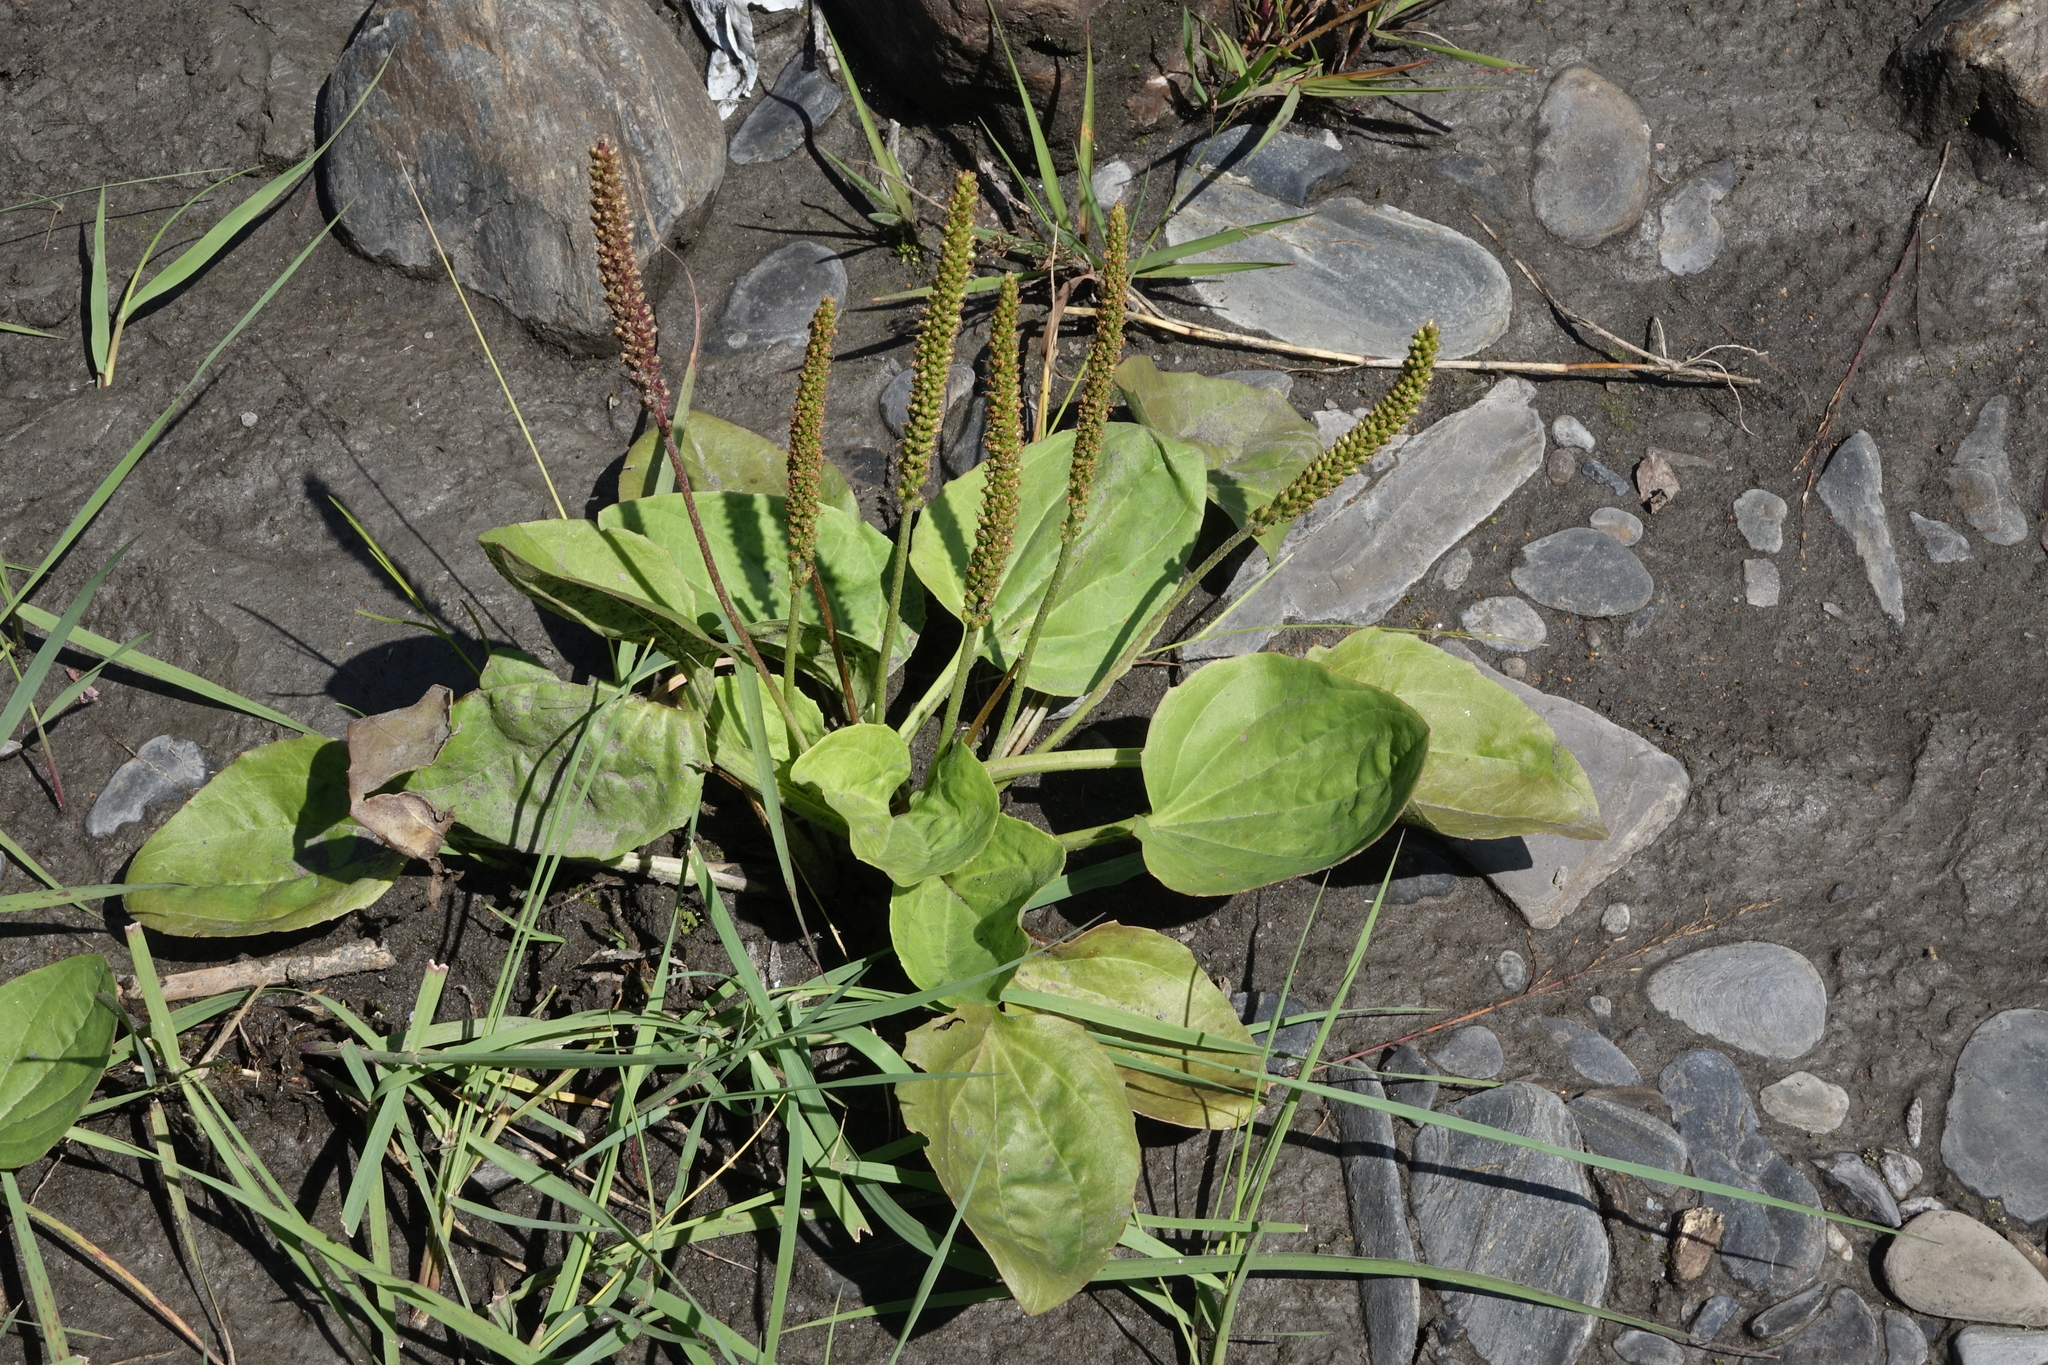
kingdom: Plantae
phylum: Tracheophyta
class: Magnoliopsida
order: Lamiales
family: Plantaginaceae
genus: Plantago
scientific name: Plantago major
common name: Common plantain
